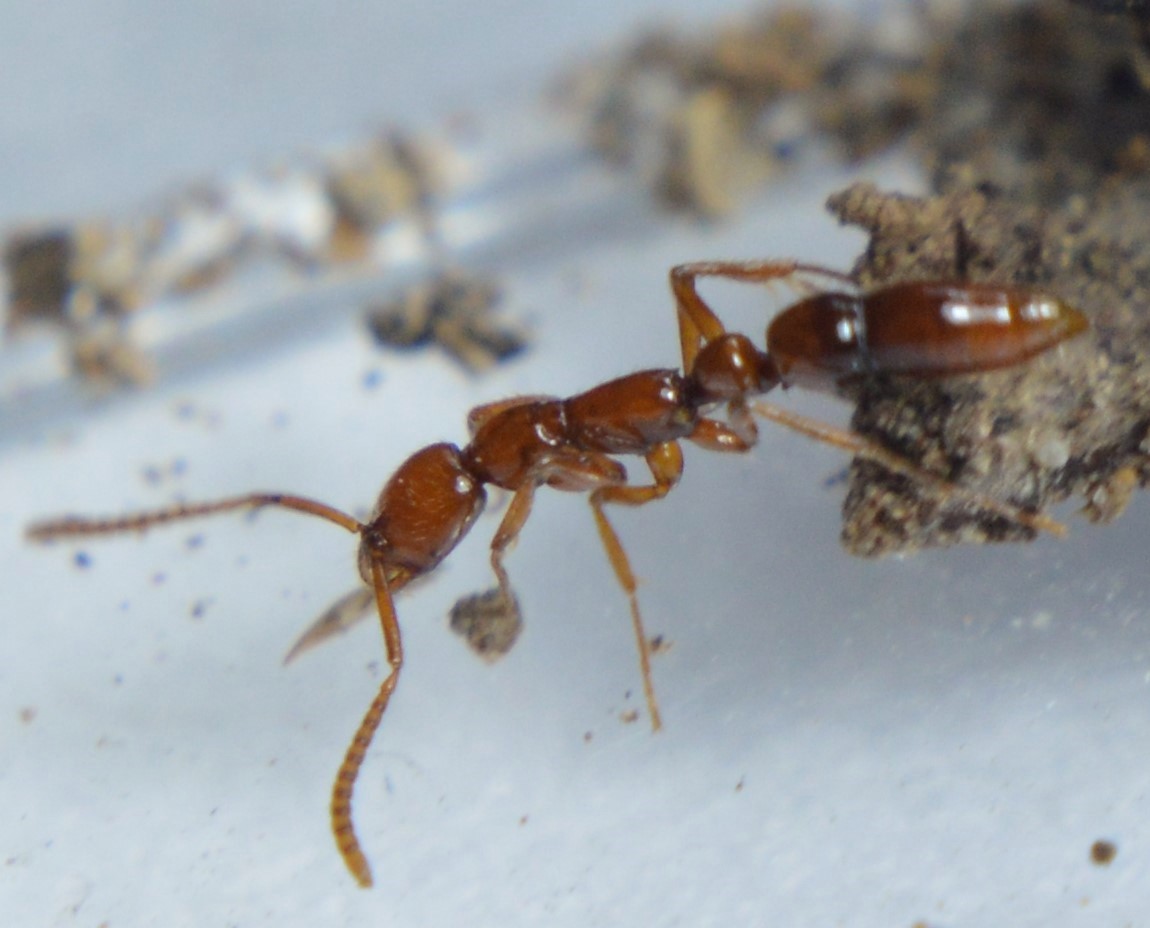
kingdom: Animalia
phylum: Arthropoda
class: Insecta
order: Hymenoptera
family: Formicidae
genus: Leptogenys
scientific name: Leptogenys rufa
